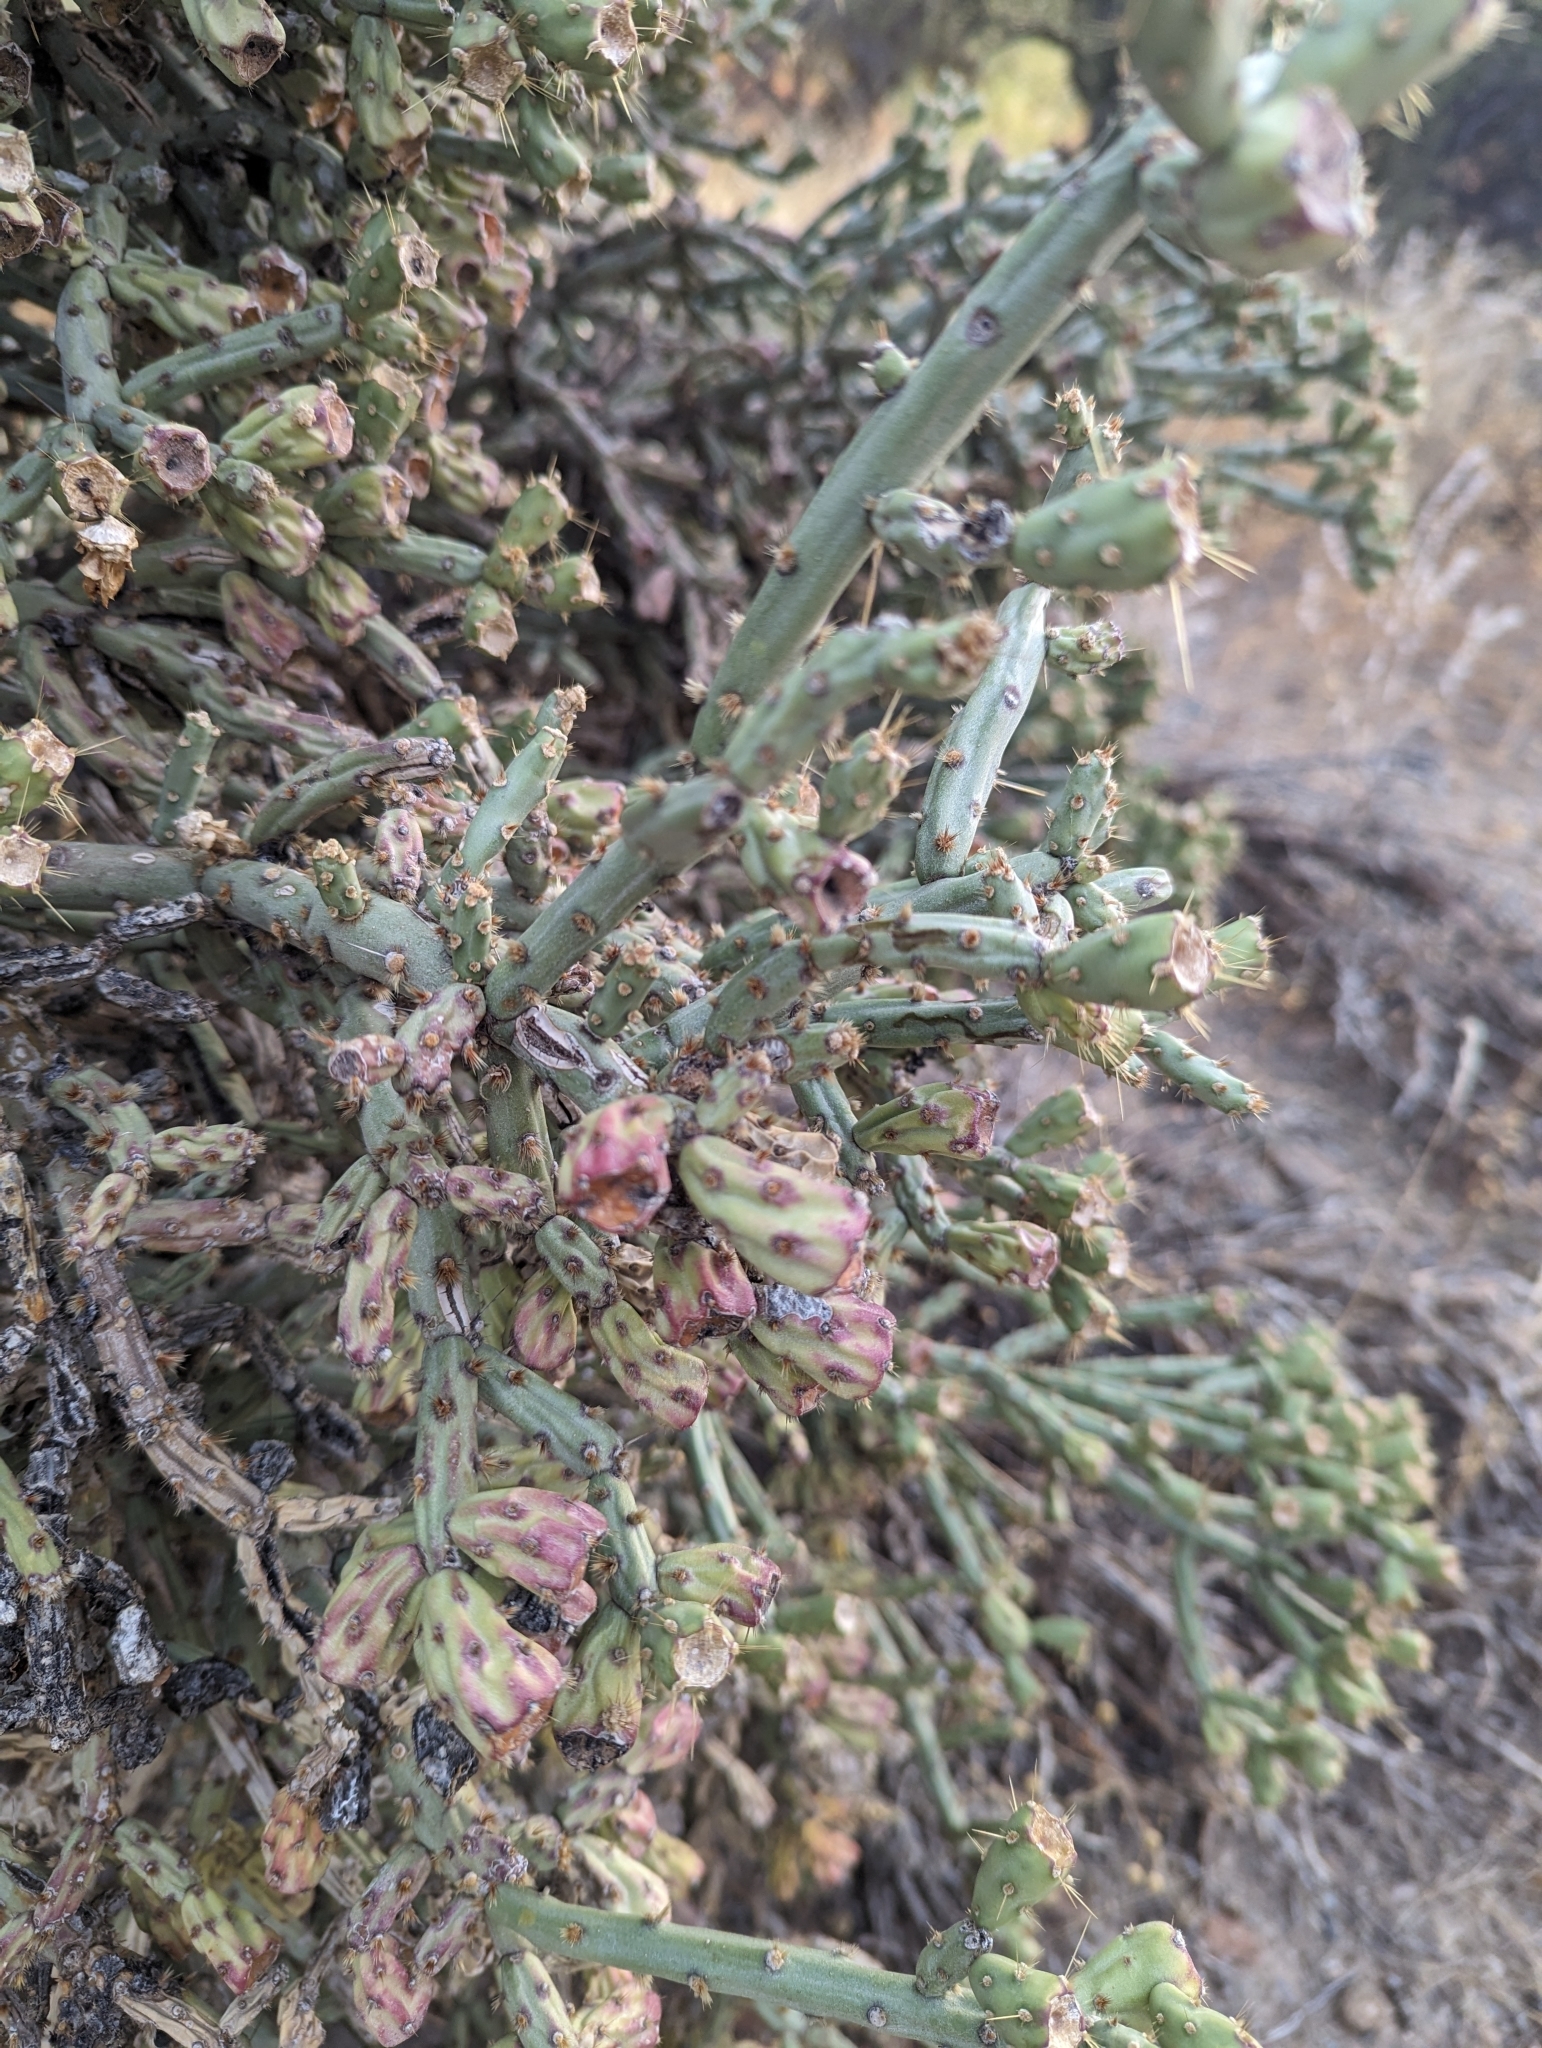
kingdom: Plantae
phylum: Tracheophyta
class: Magnoliopsida
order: Caryophyllales
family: Cactaceae
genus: Cylindropuntia
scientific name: Cylindropuntia arbuscula
